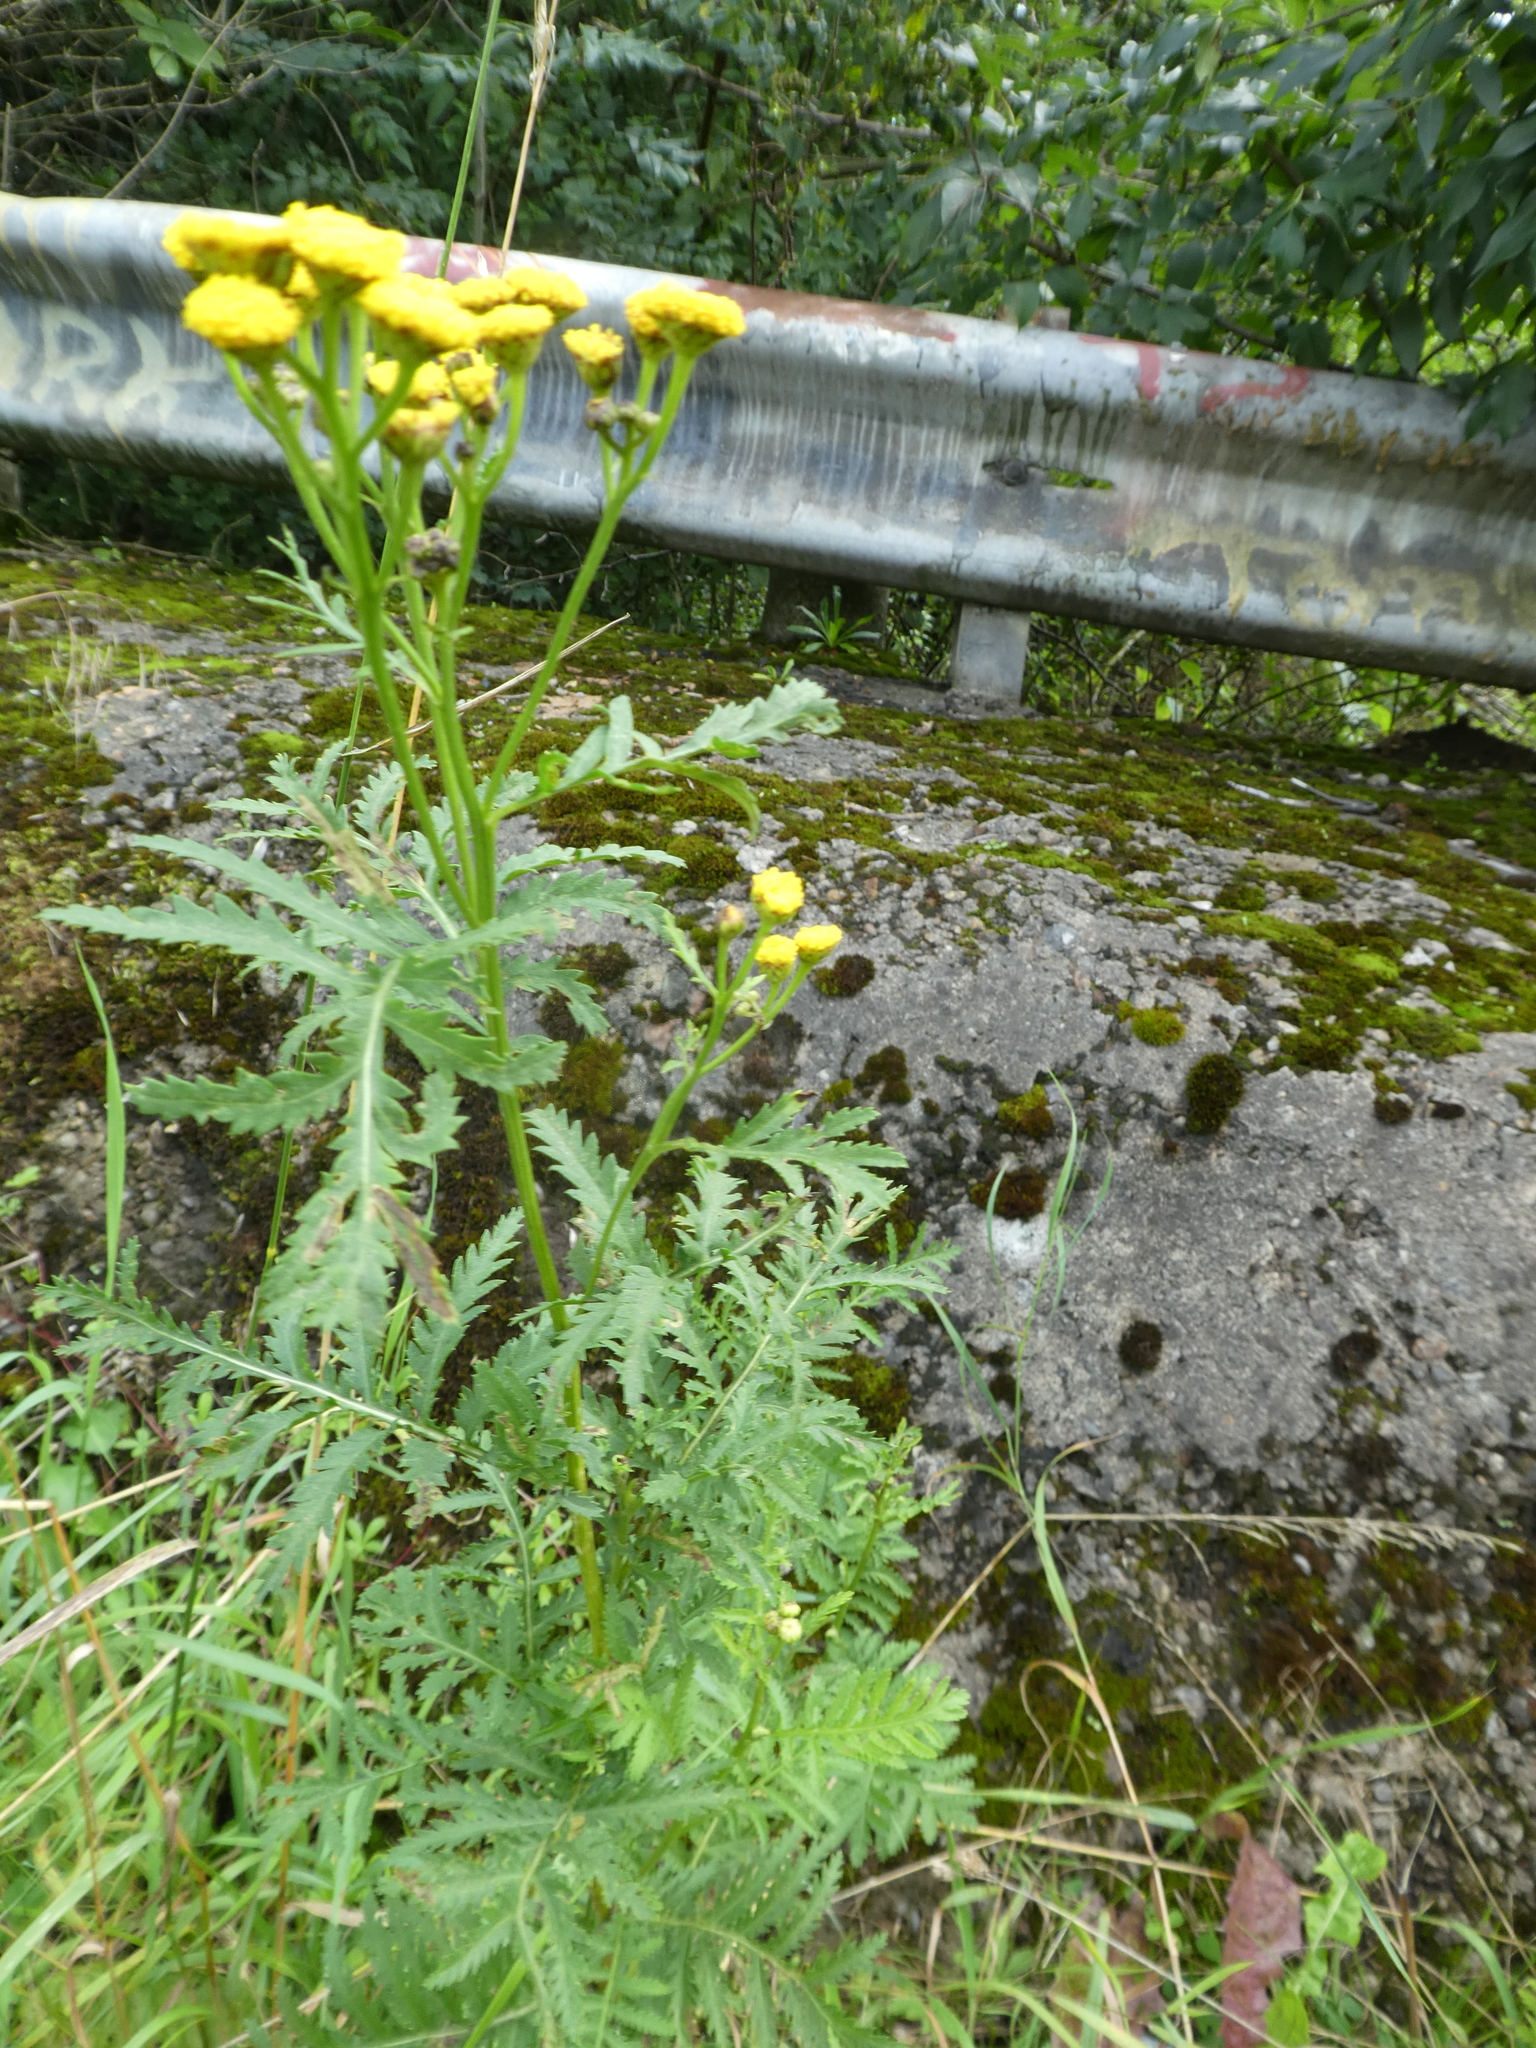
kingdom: Plantae
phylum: Tracheophyta
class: Magnoliopsida
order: Asterales
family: Asteraceae
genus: Tanacetum
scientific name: Tanacetum vulgare
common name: Common tansy
